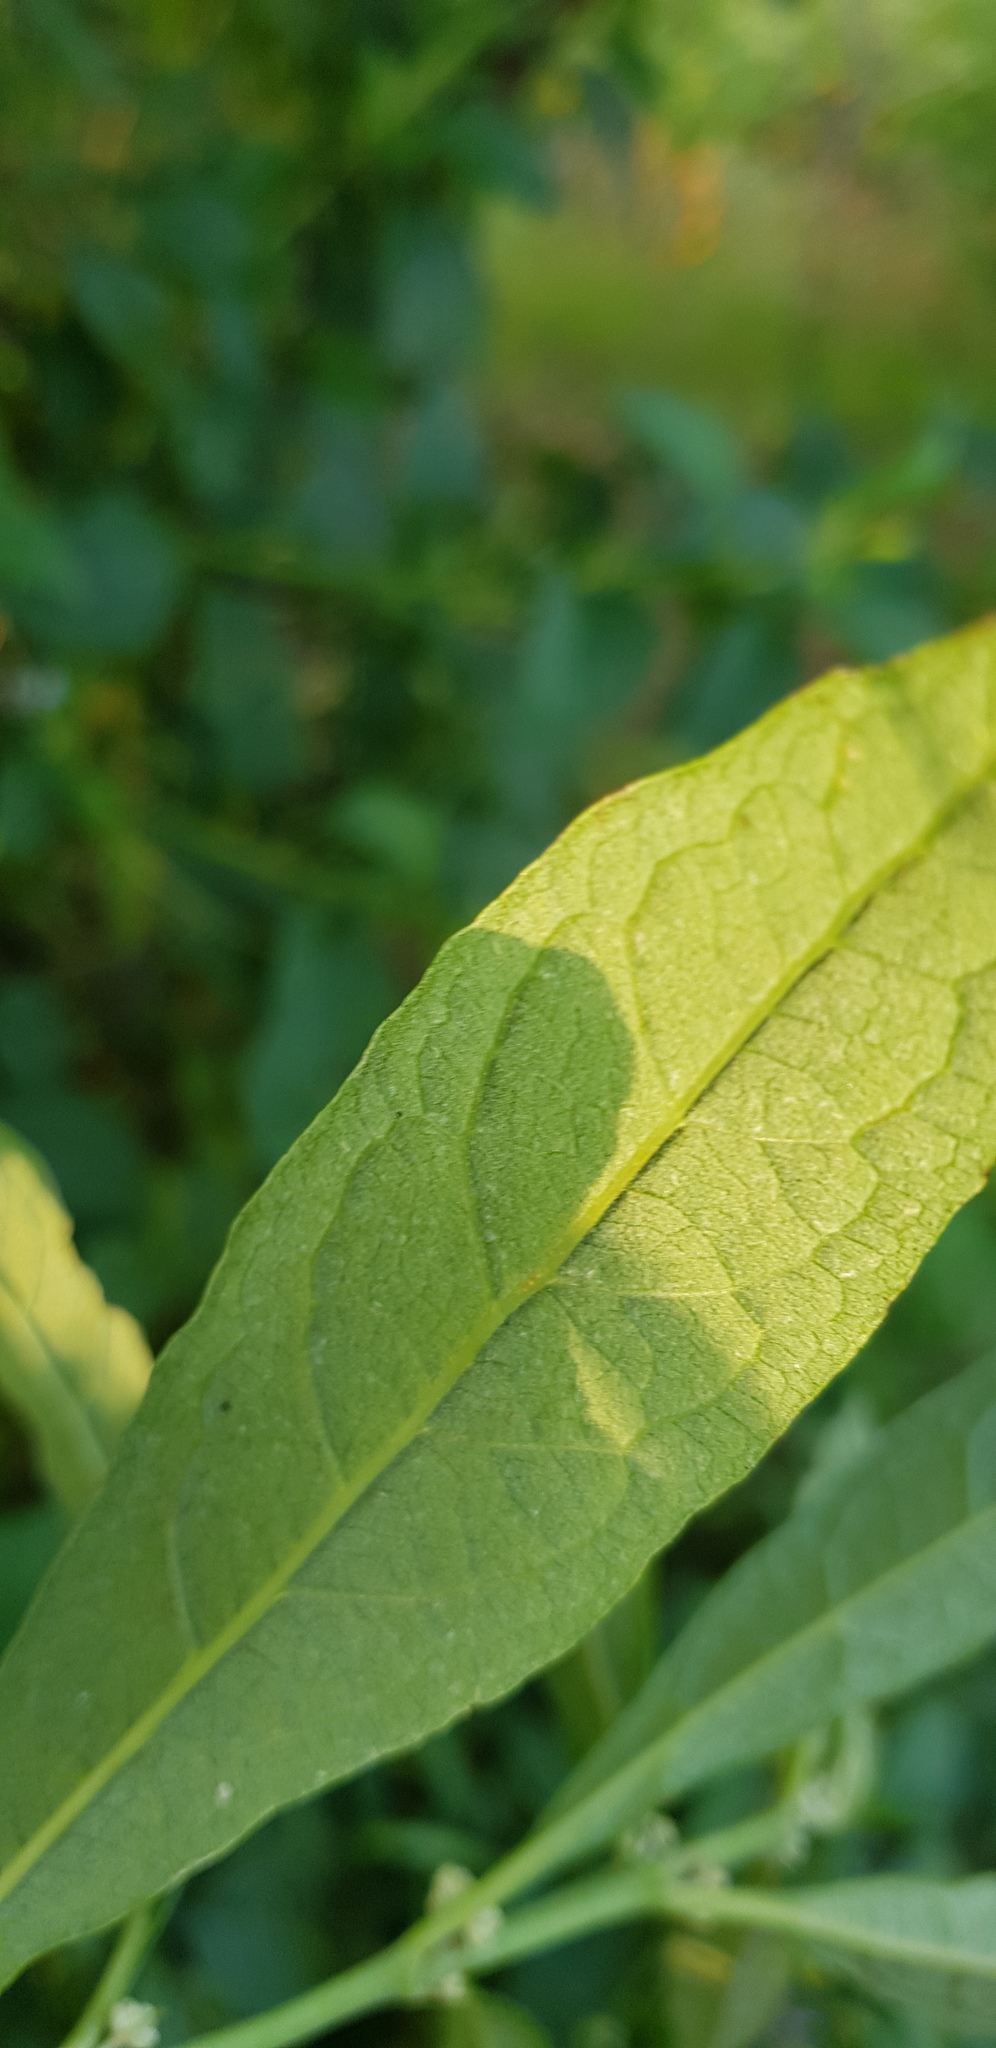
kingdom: Plantae
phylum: Tracheophyta
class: Magnoliopsida
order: Lamiales
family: Scrophulariaceae
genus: Buddleja
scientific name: Buddleja sessiliflora
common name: Rio grande butterfly-bush
